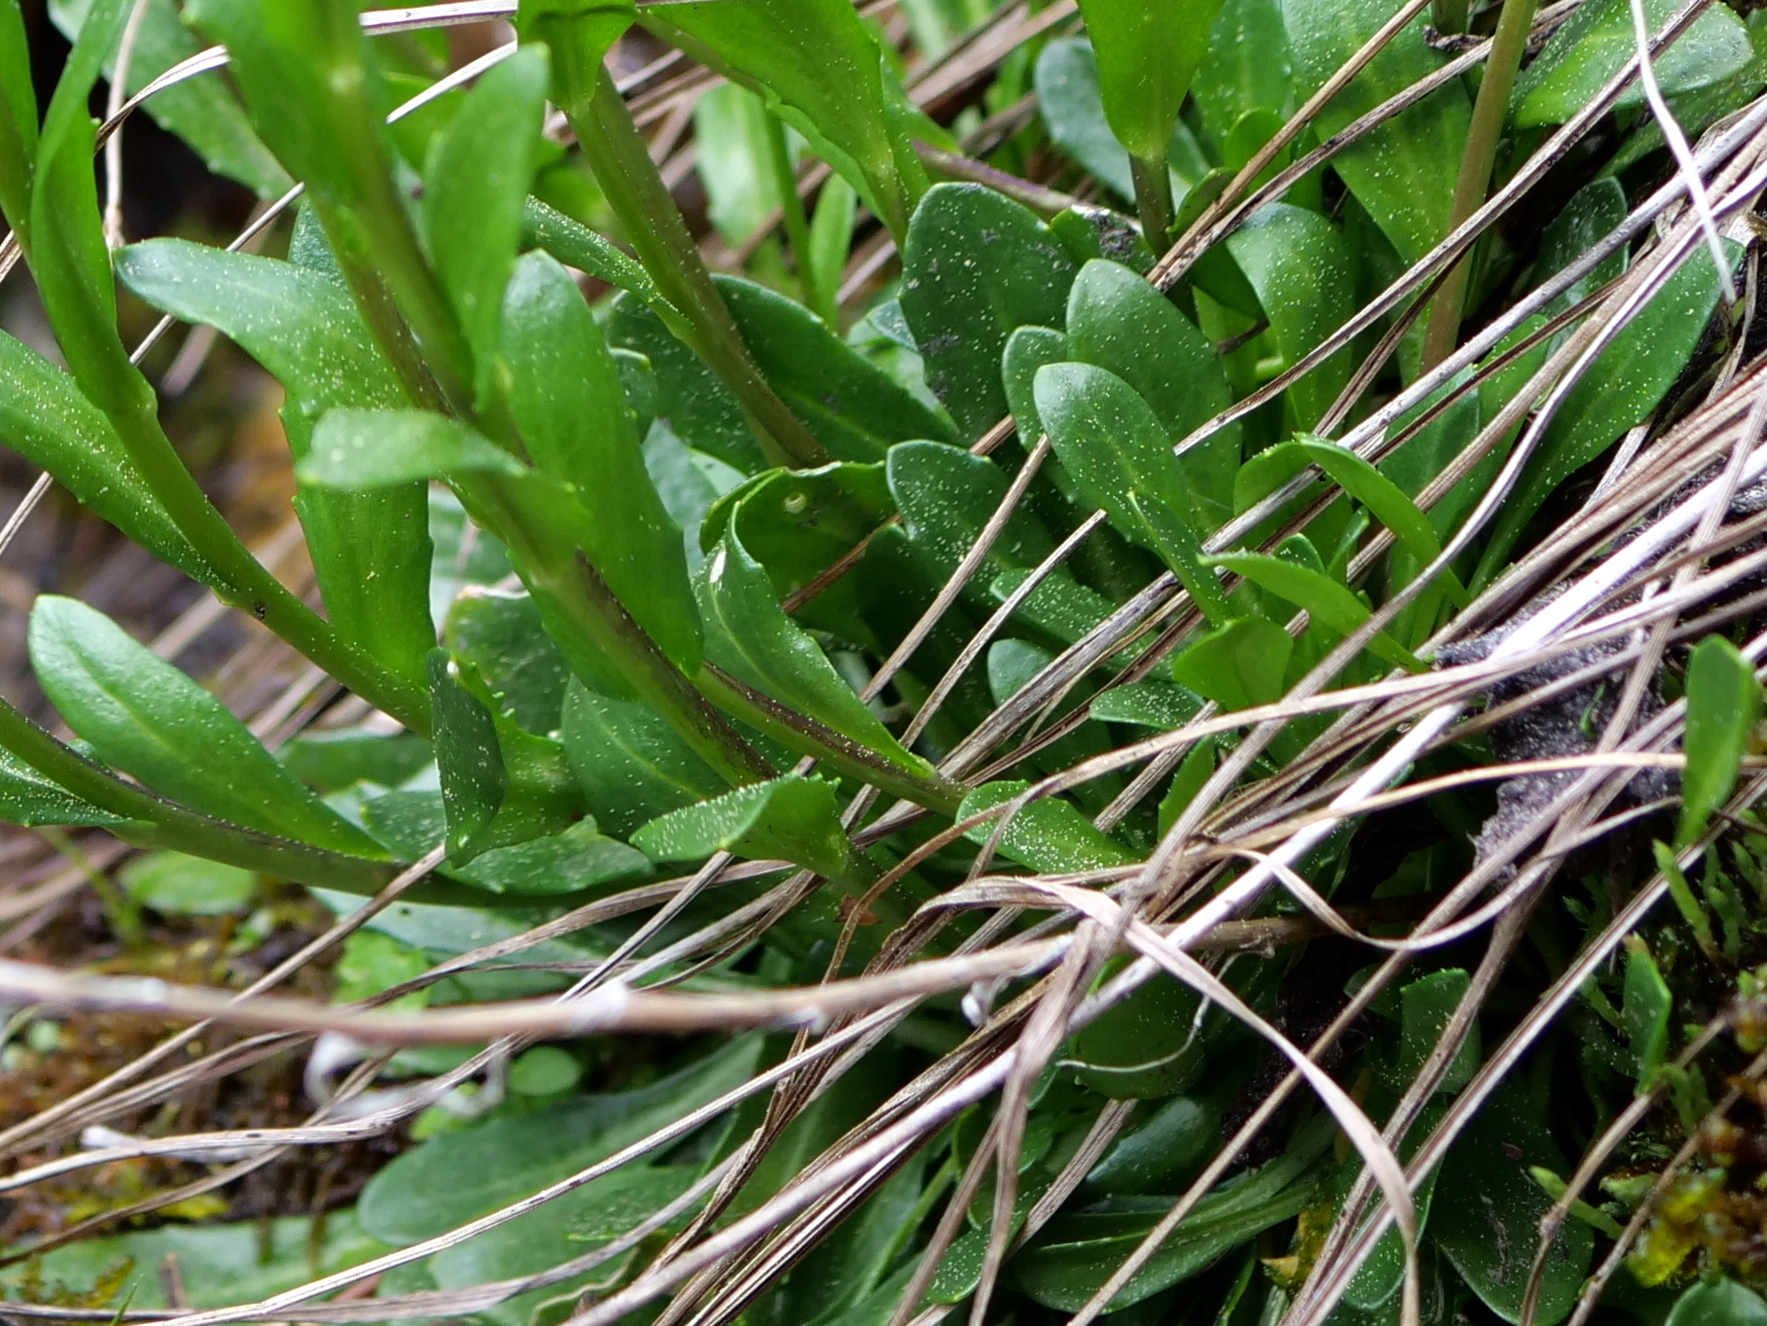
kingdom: Plantae
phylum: Tracheophyta
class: Magnoliopsida
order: Brassicales
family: Brassicaceae
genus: Arabis
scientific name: Arabis soyeri
